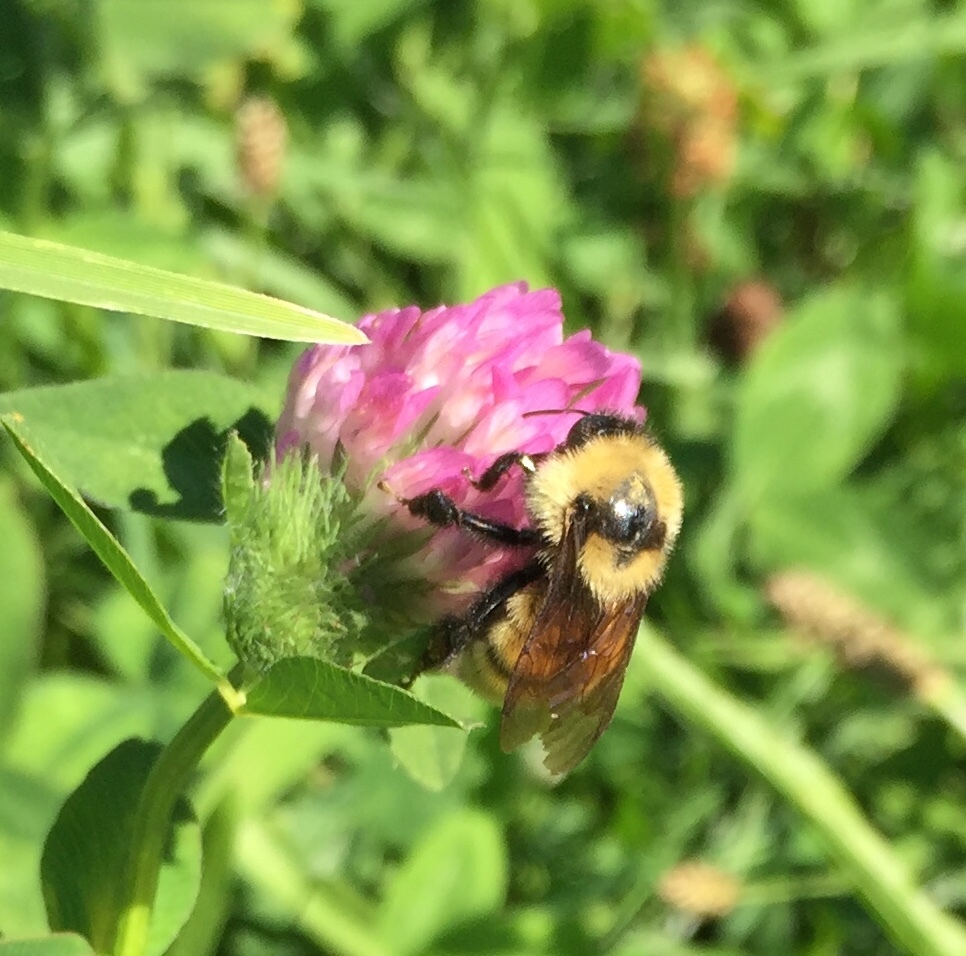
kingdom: Animalia
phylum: Arthropoda
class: Insecta
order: Hymenoptera
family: Apidae
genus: Bombus
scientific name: Bombus fervidus
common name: Yellow bumble bee
